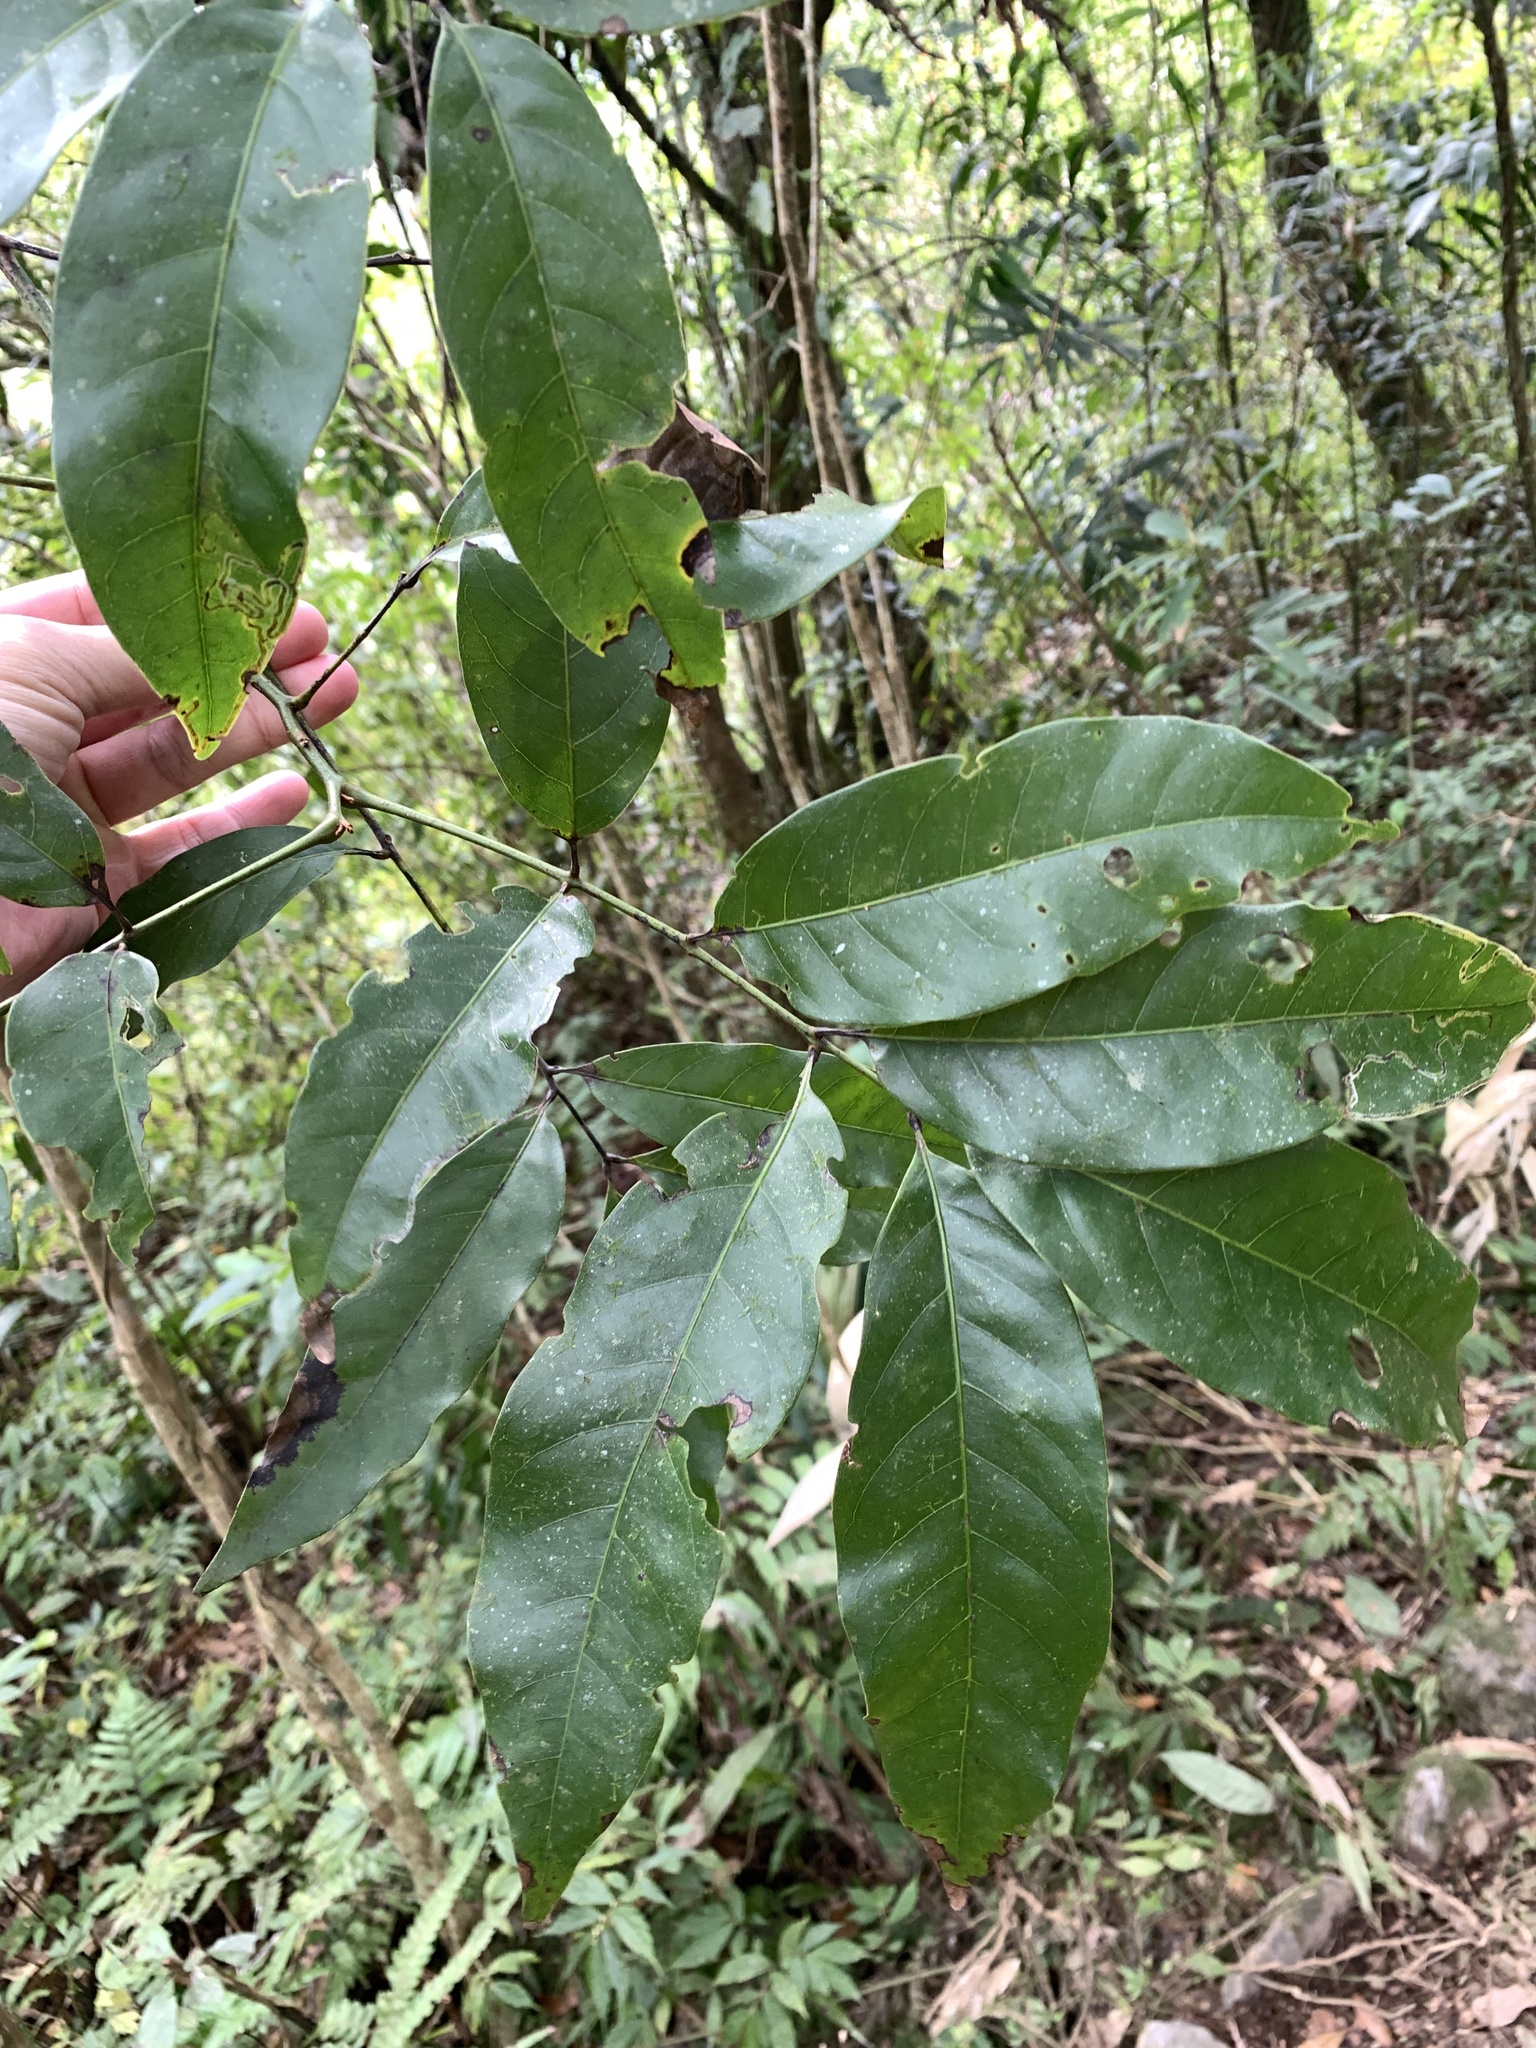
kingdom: Plantae
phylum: Tracheophyta
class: Magnoliopsida
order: Fagales
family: Juglandaceae
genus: Engelhardia
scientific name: Engelhardia roxburghiana
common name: Golden malay beam
